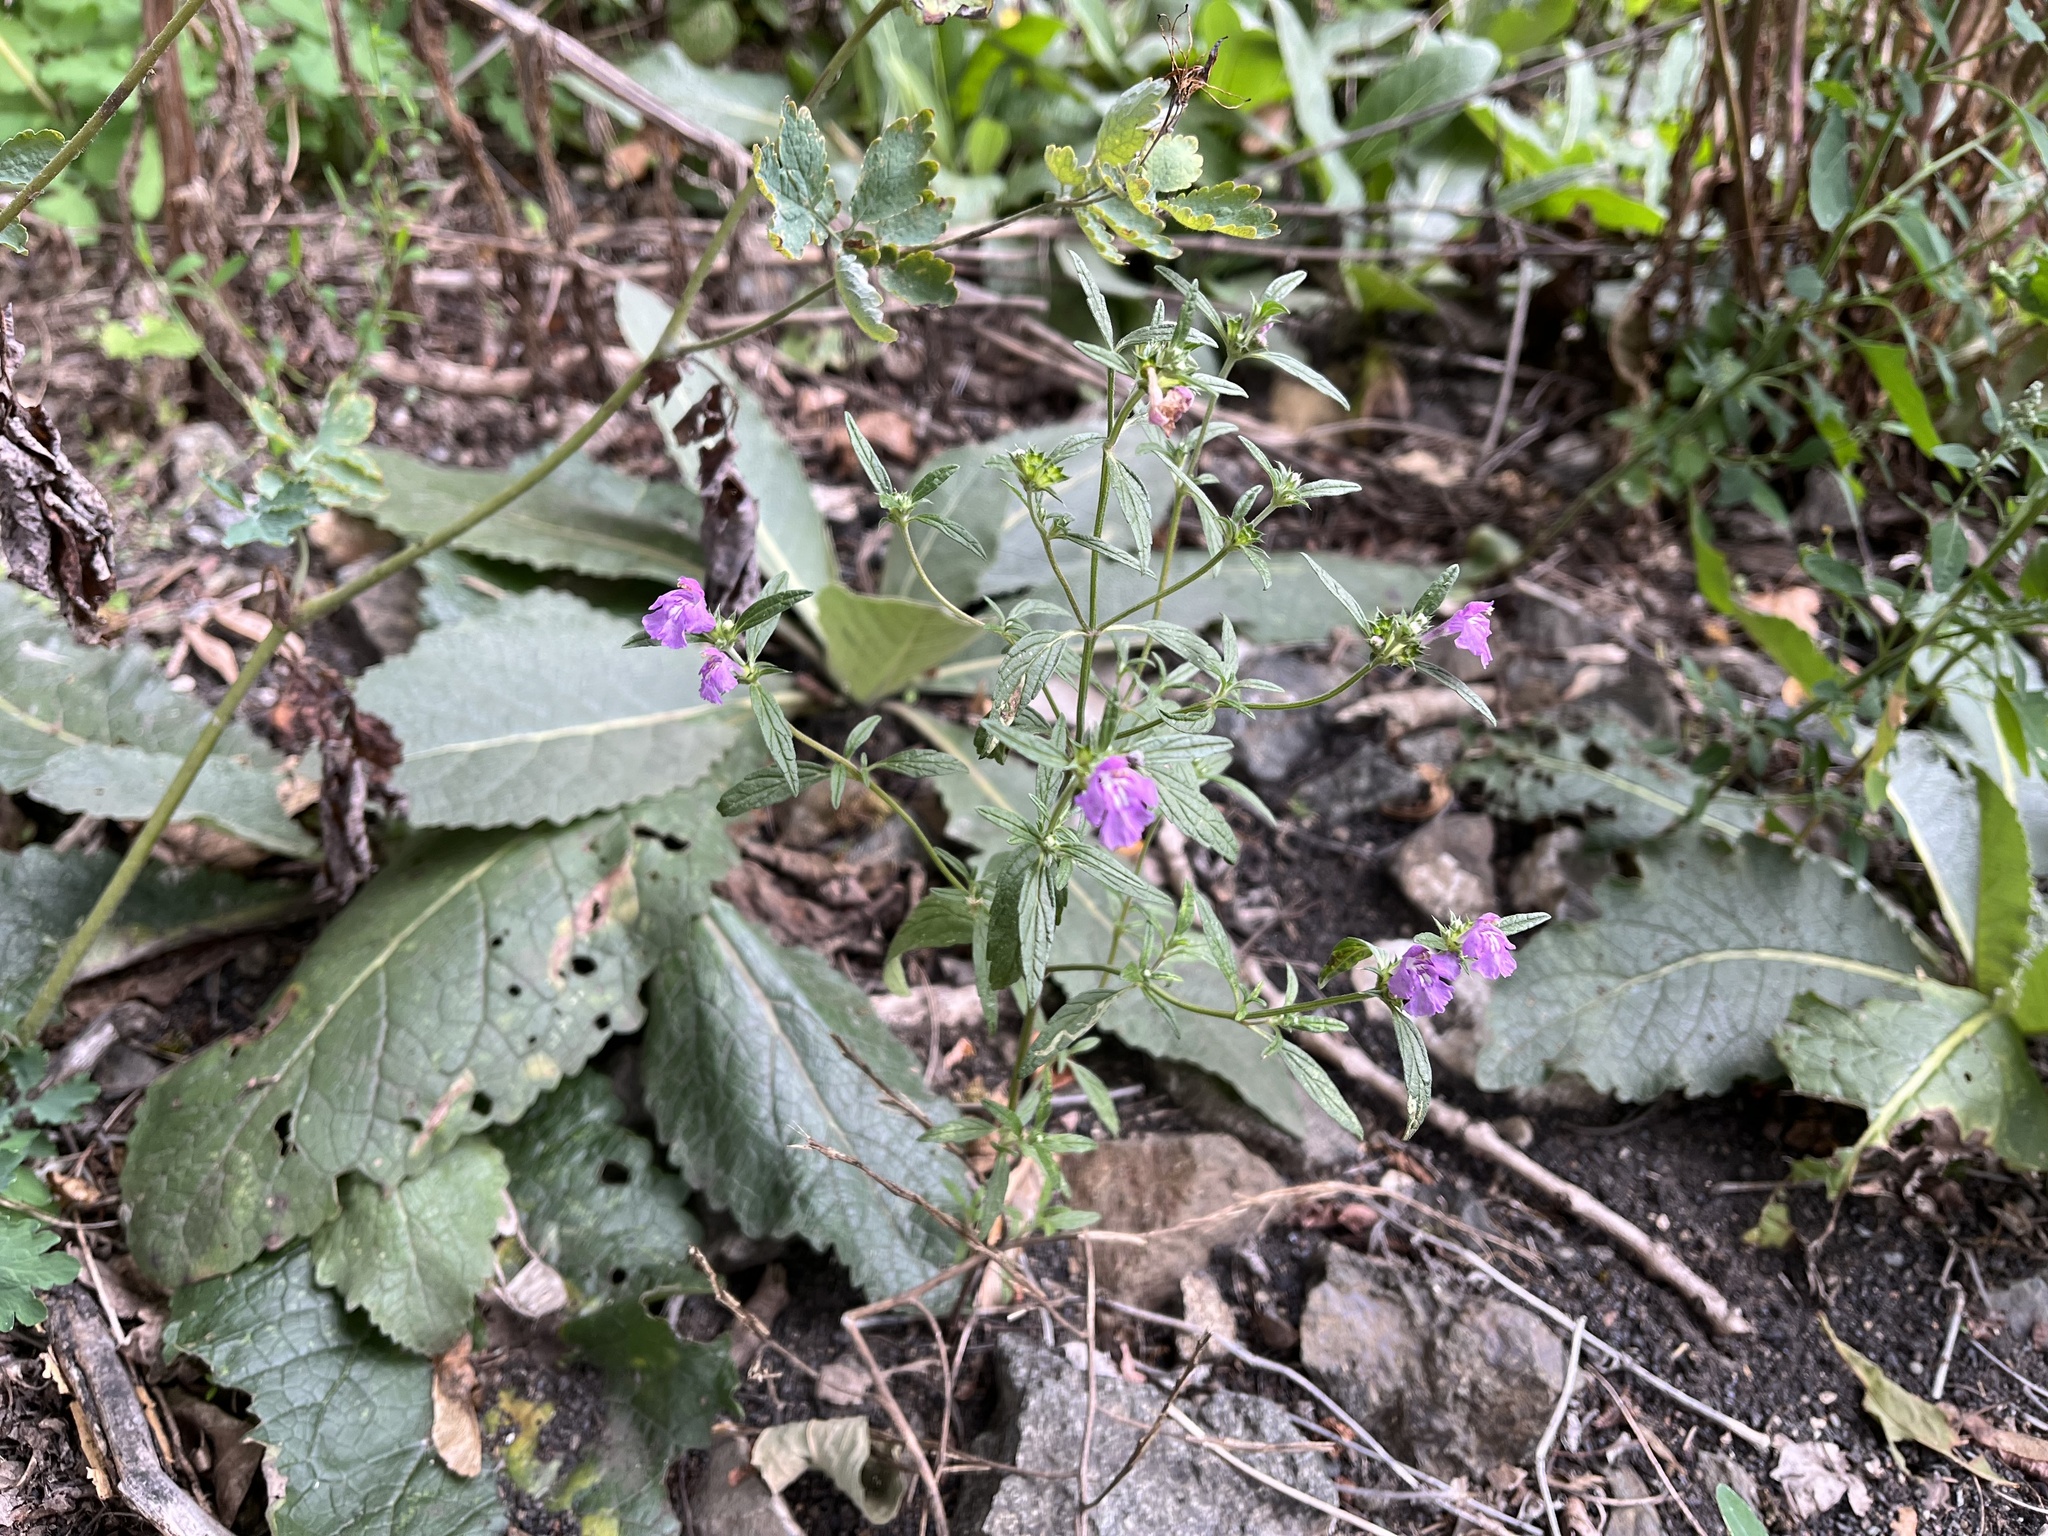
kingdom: Plantae
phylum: Tracheophyta
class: Magnoliopsida
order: Lamiales
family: Lamiaceae
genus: Galeopsis
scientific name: Galeopsis ladanum
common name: Broad-leaved hemp-nettle
